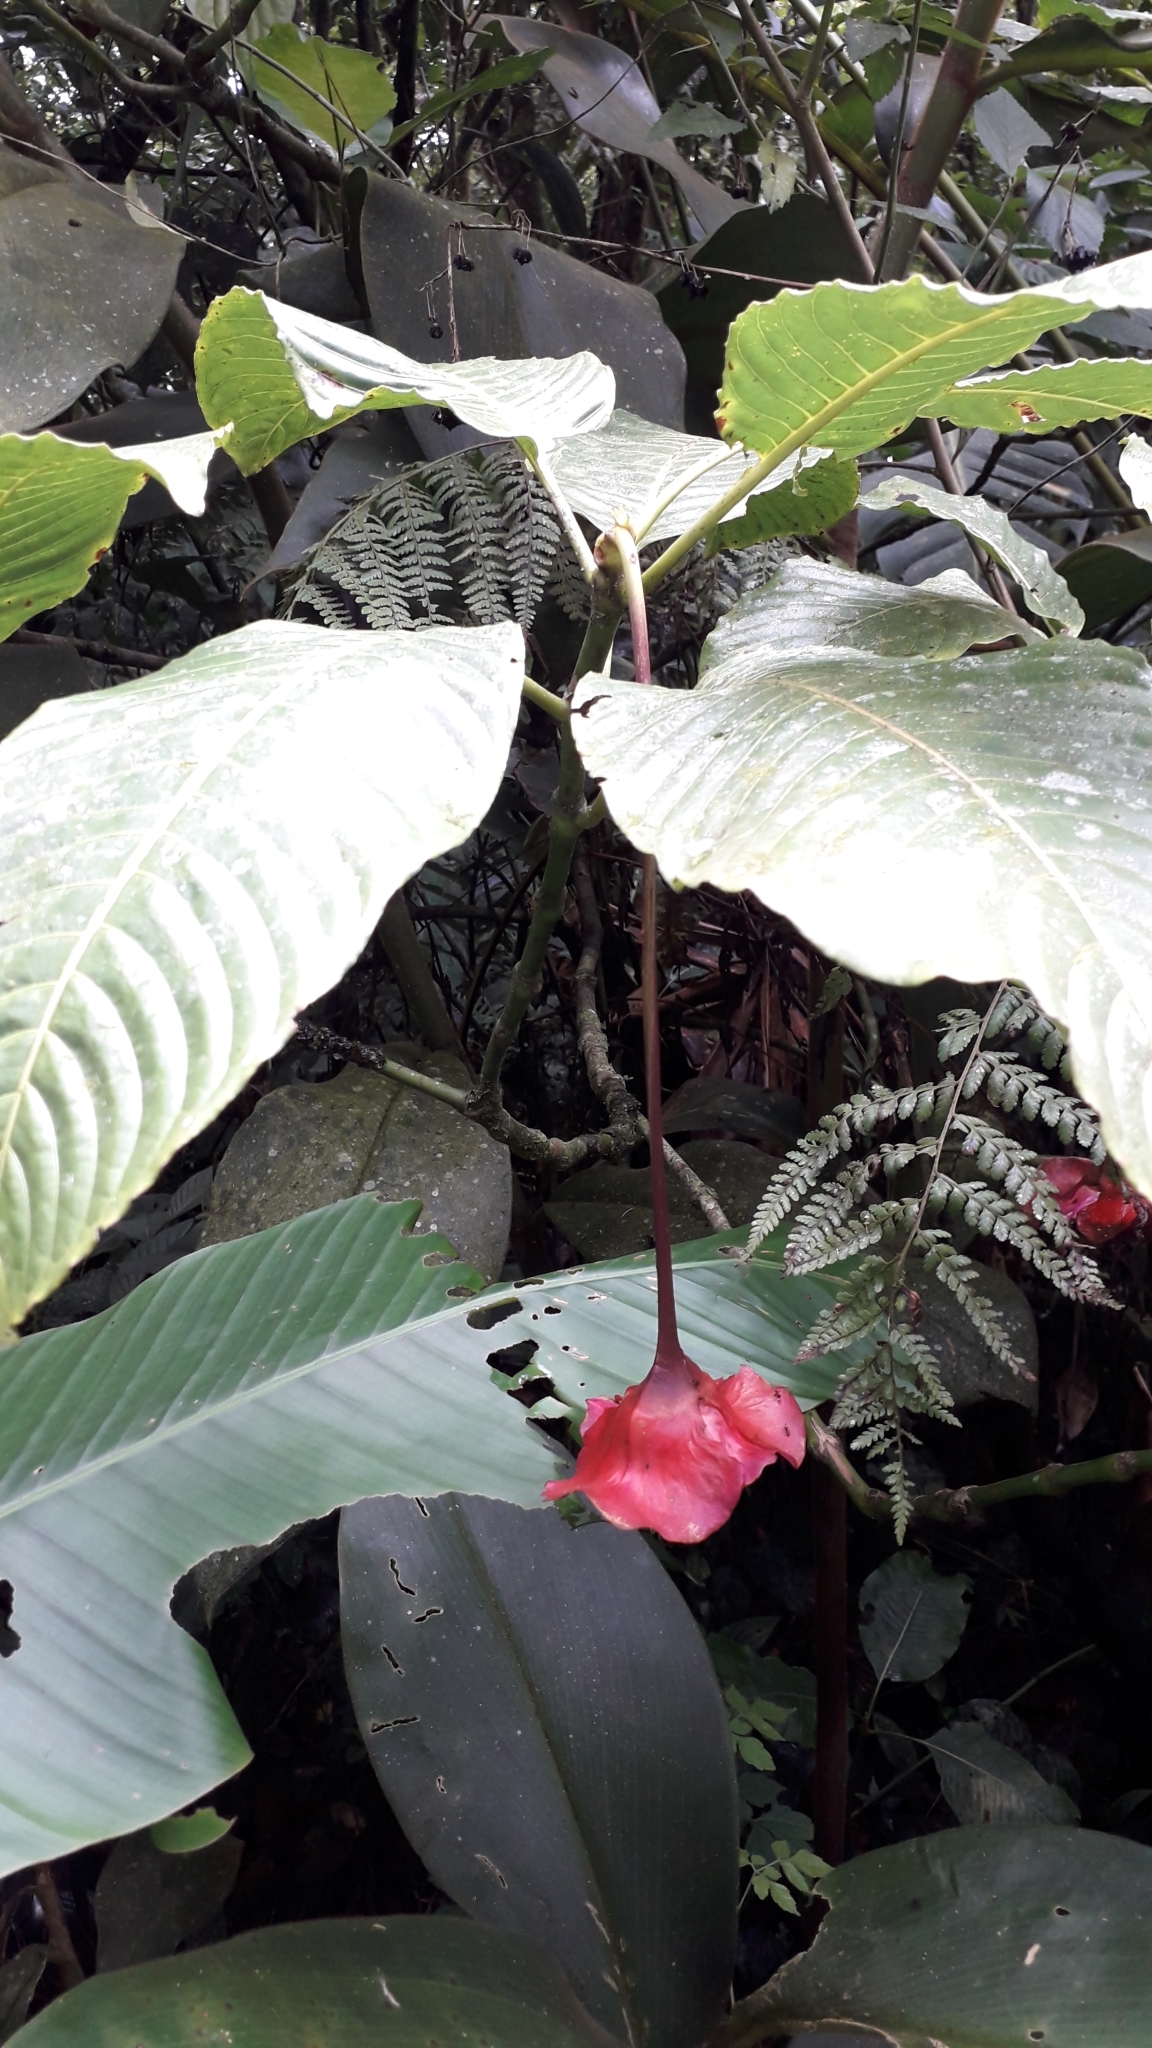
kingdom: Plantae
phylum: Tracheophyta
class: Magnoliopsida
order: Gentianales
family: Rubiaceae
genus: Palicourea
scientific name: Palicourea correae
